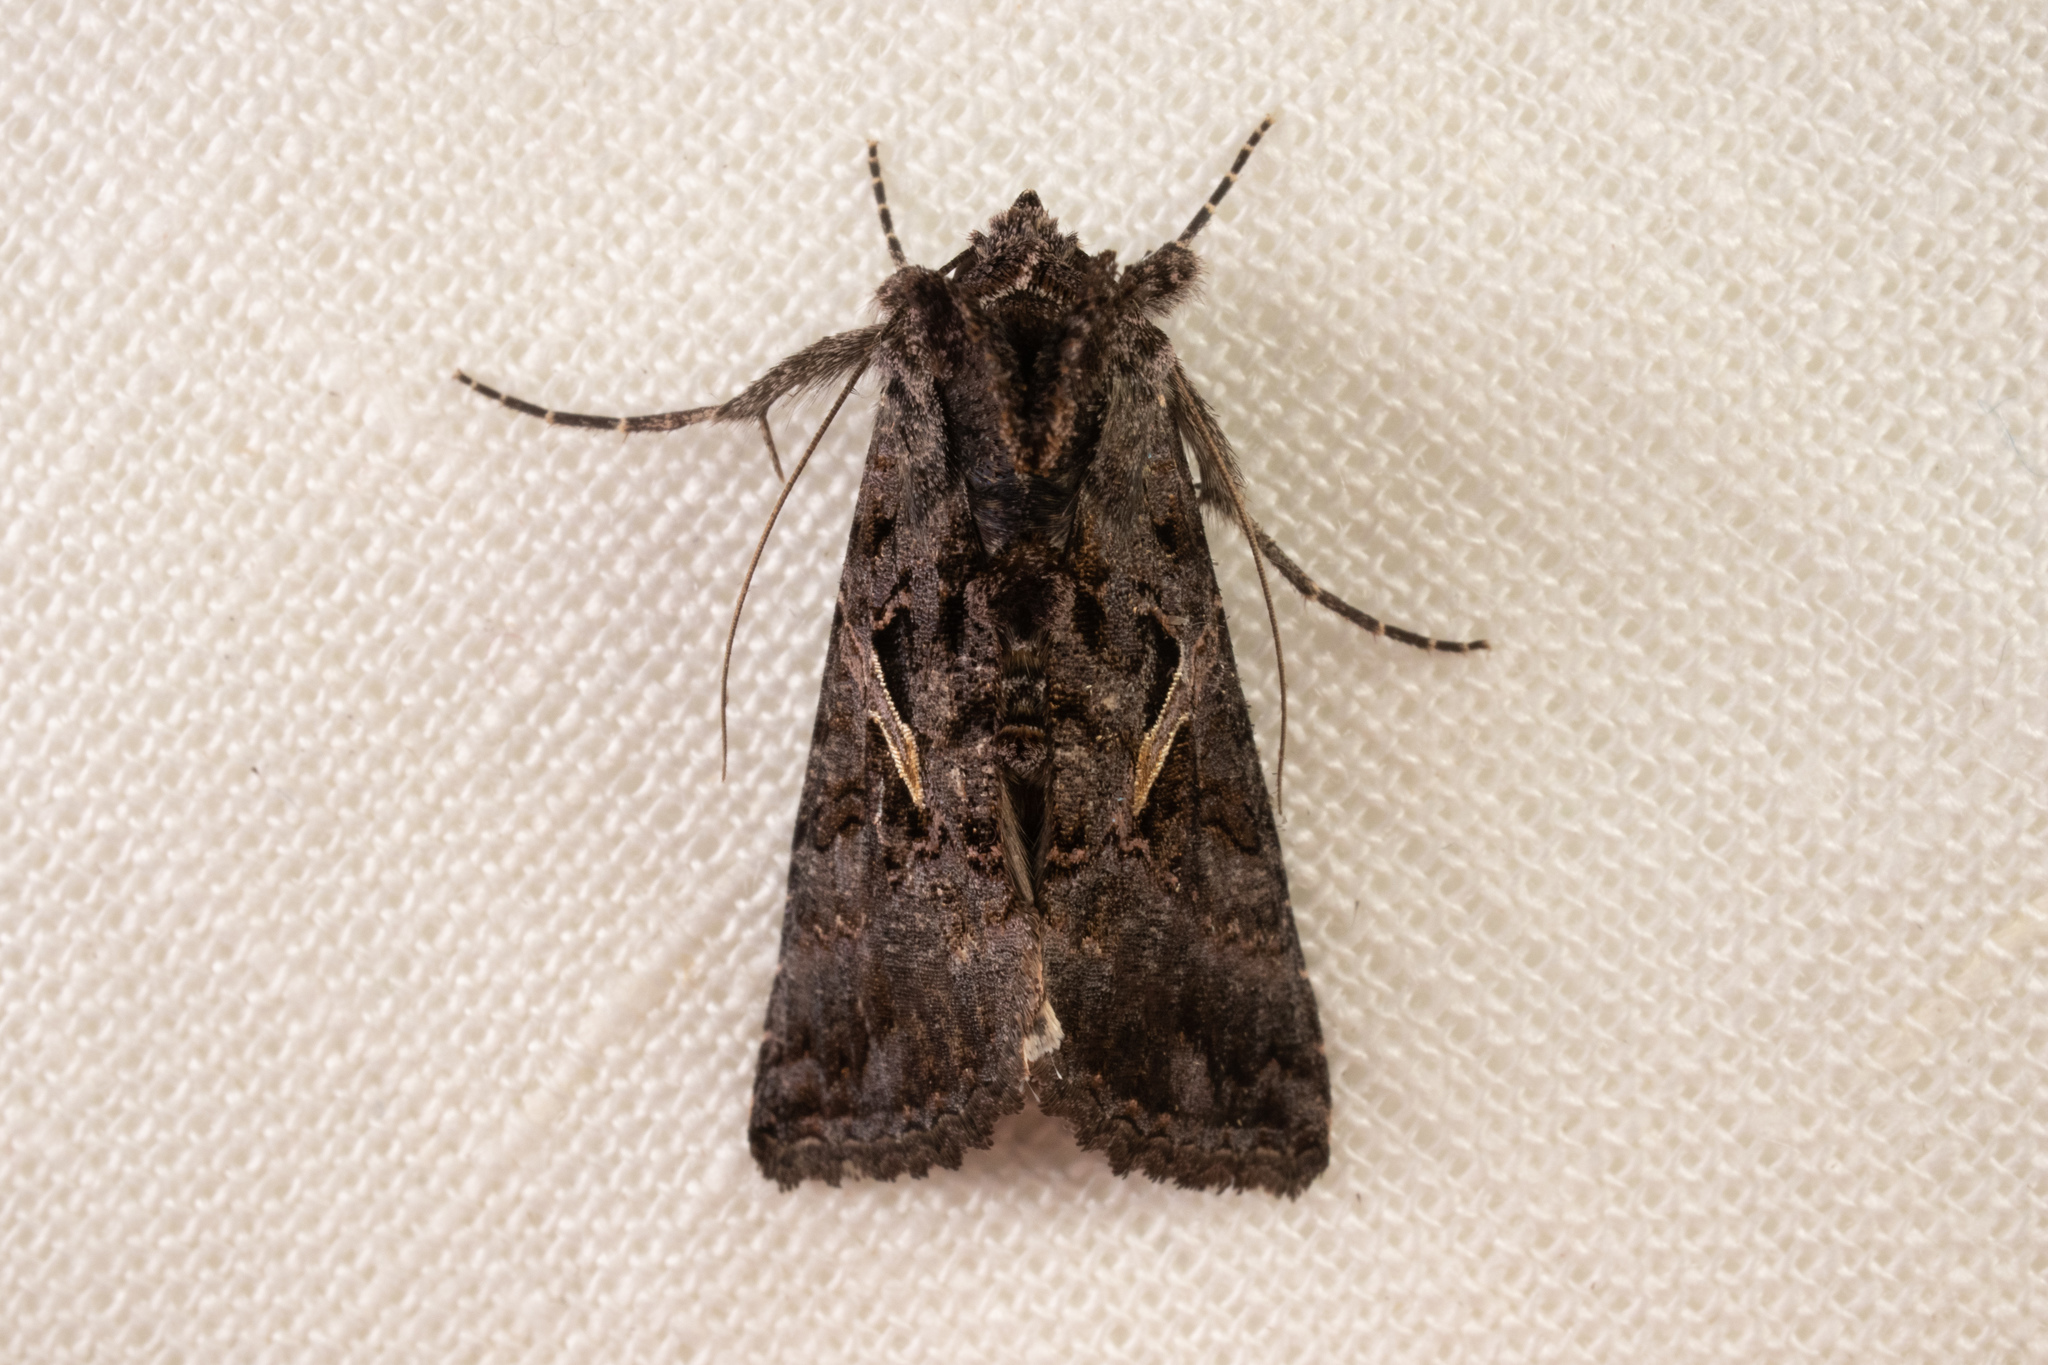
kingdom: Animalia
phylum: Arthropoda
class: Insecta
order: Lepidoptera
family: Noctuidae
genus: Ctenoplusia
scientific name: Ctenoplusia oxygramma
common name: Sharp-stigma looper moth
